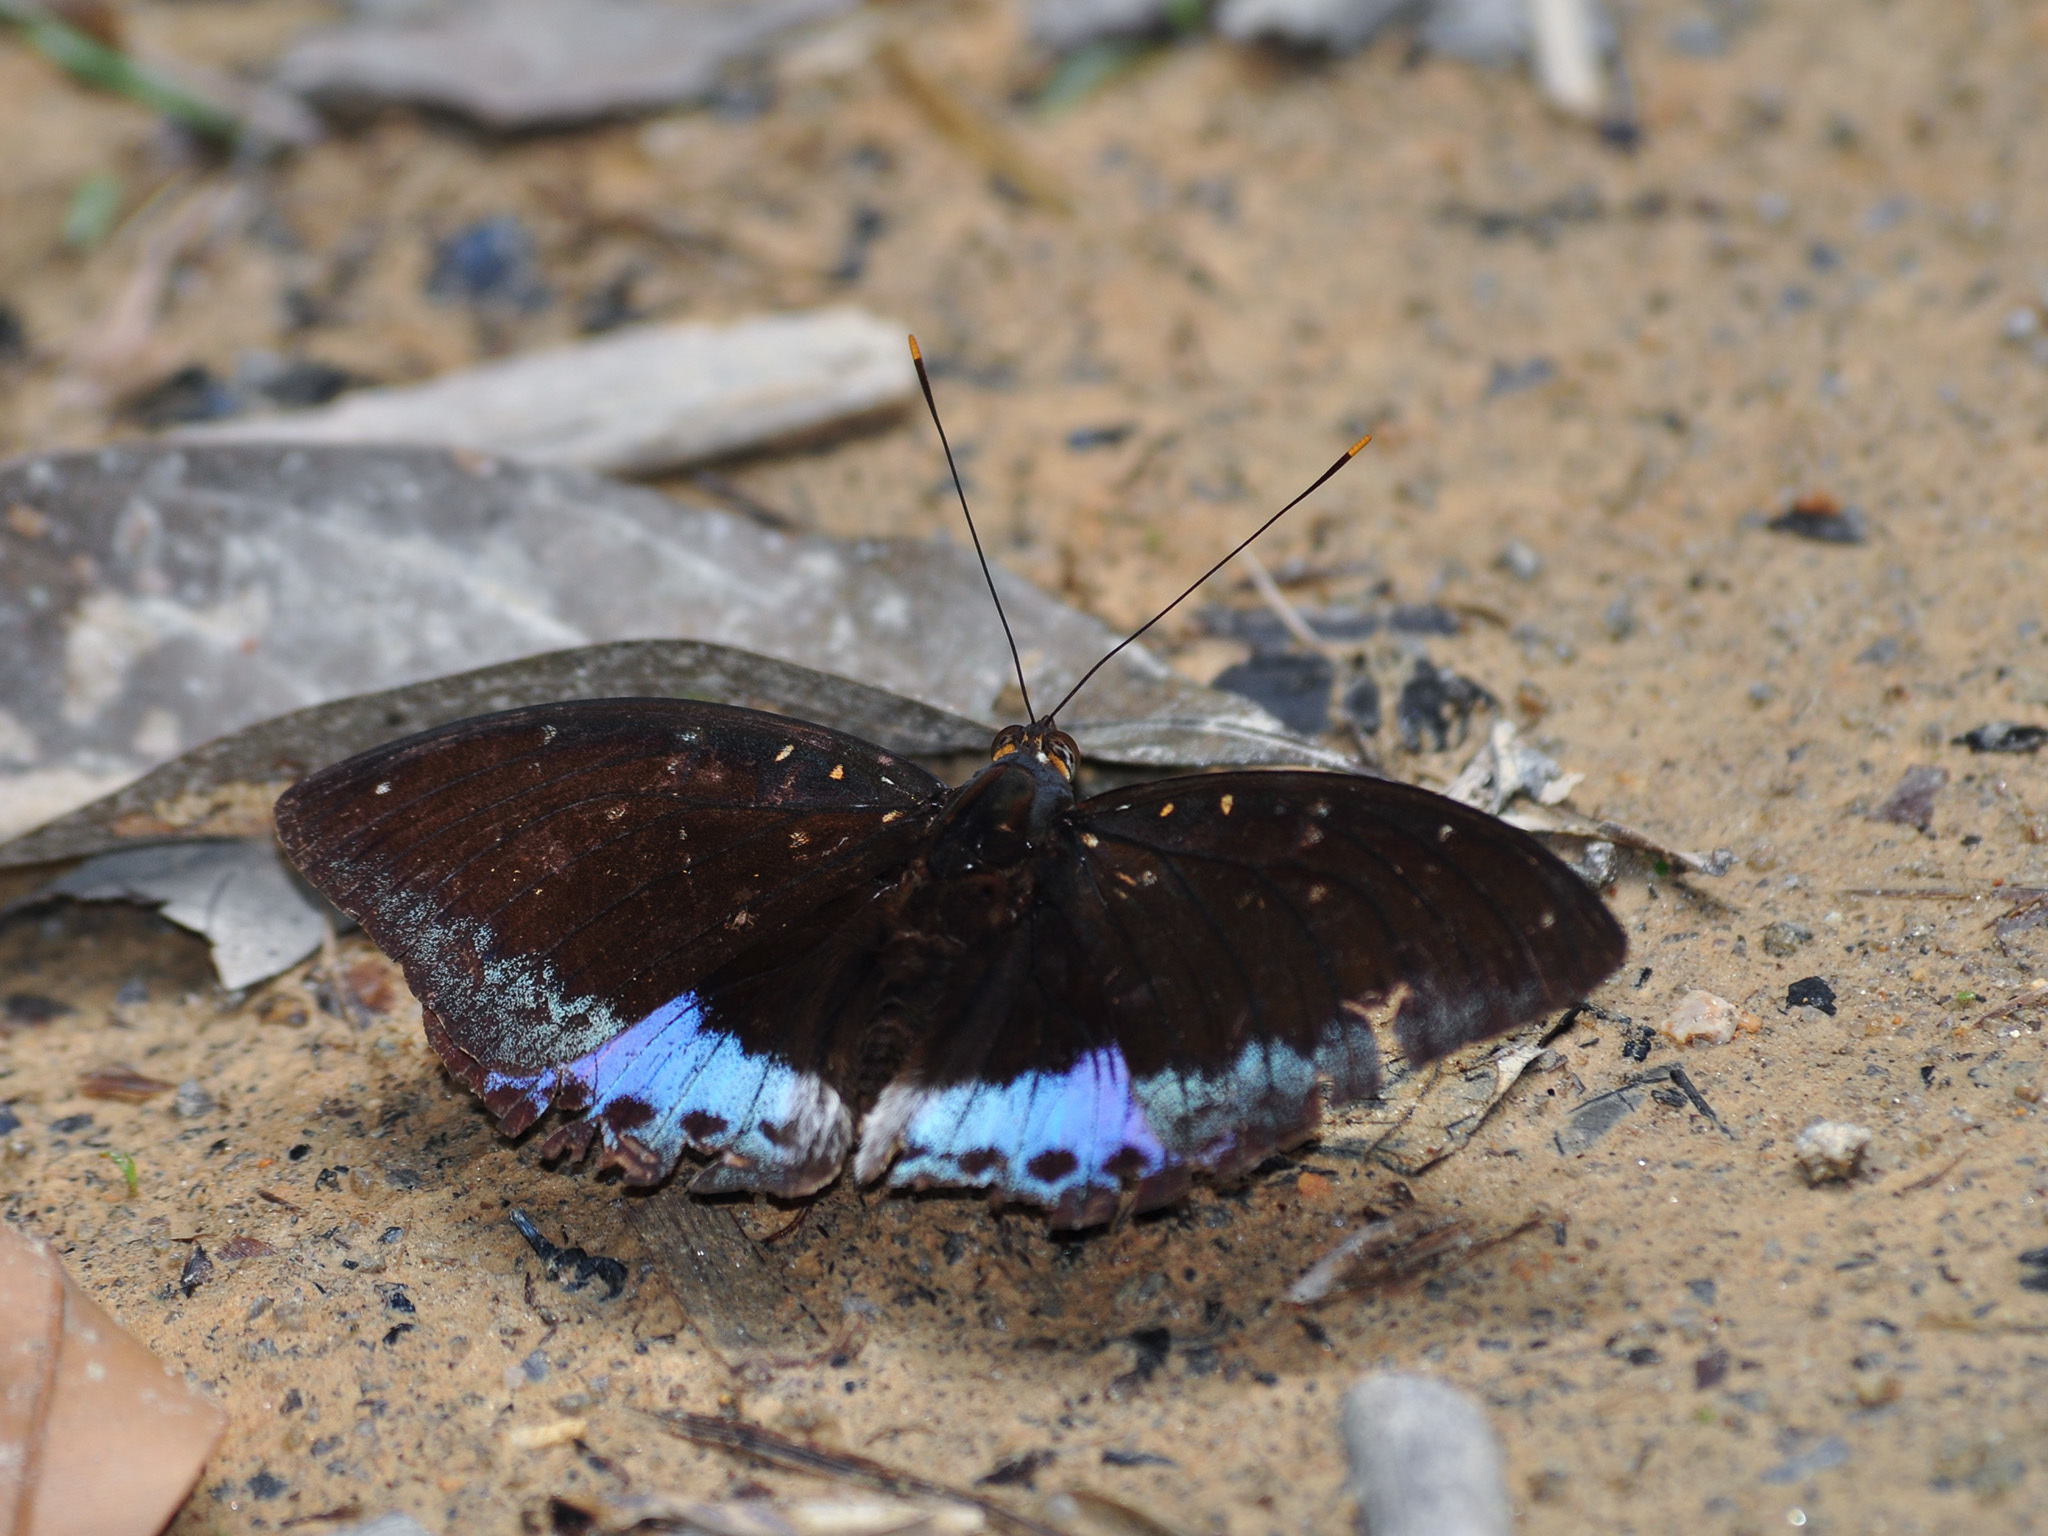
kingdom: Animalia
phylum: Arthropoda
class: Insecta
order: Lepidoptera
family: Nymphalidae
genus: Lexias
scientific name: Lexias pardalis
